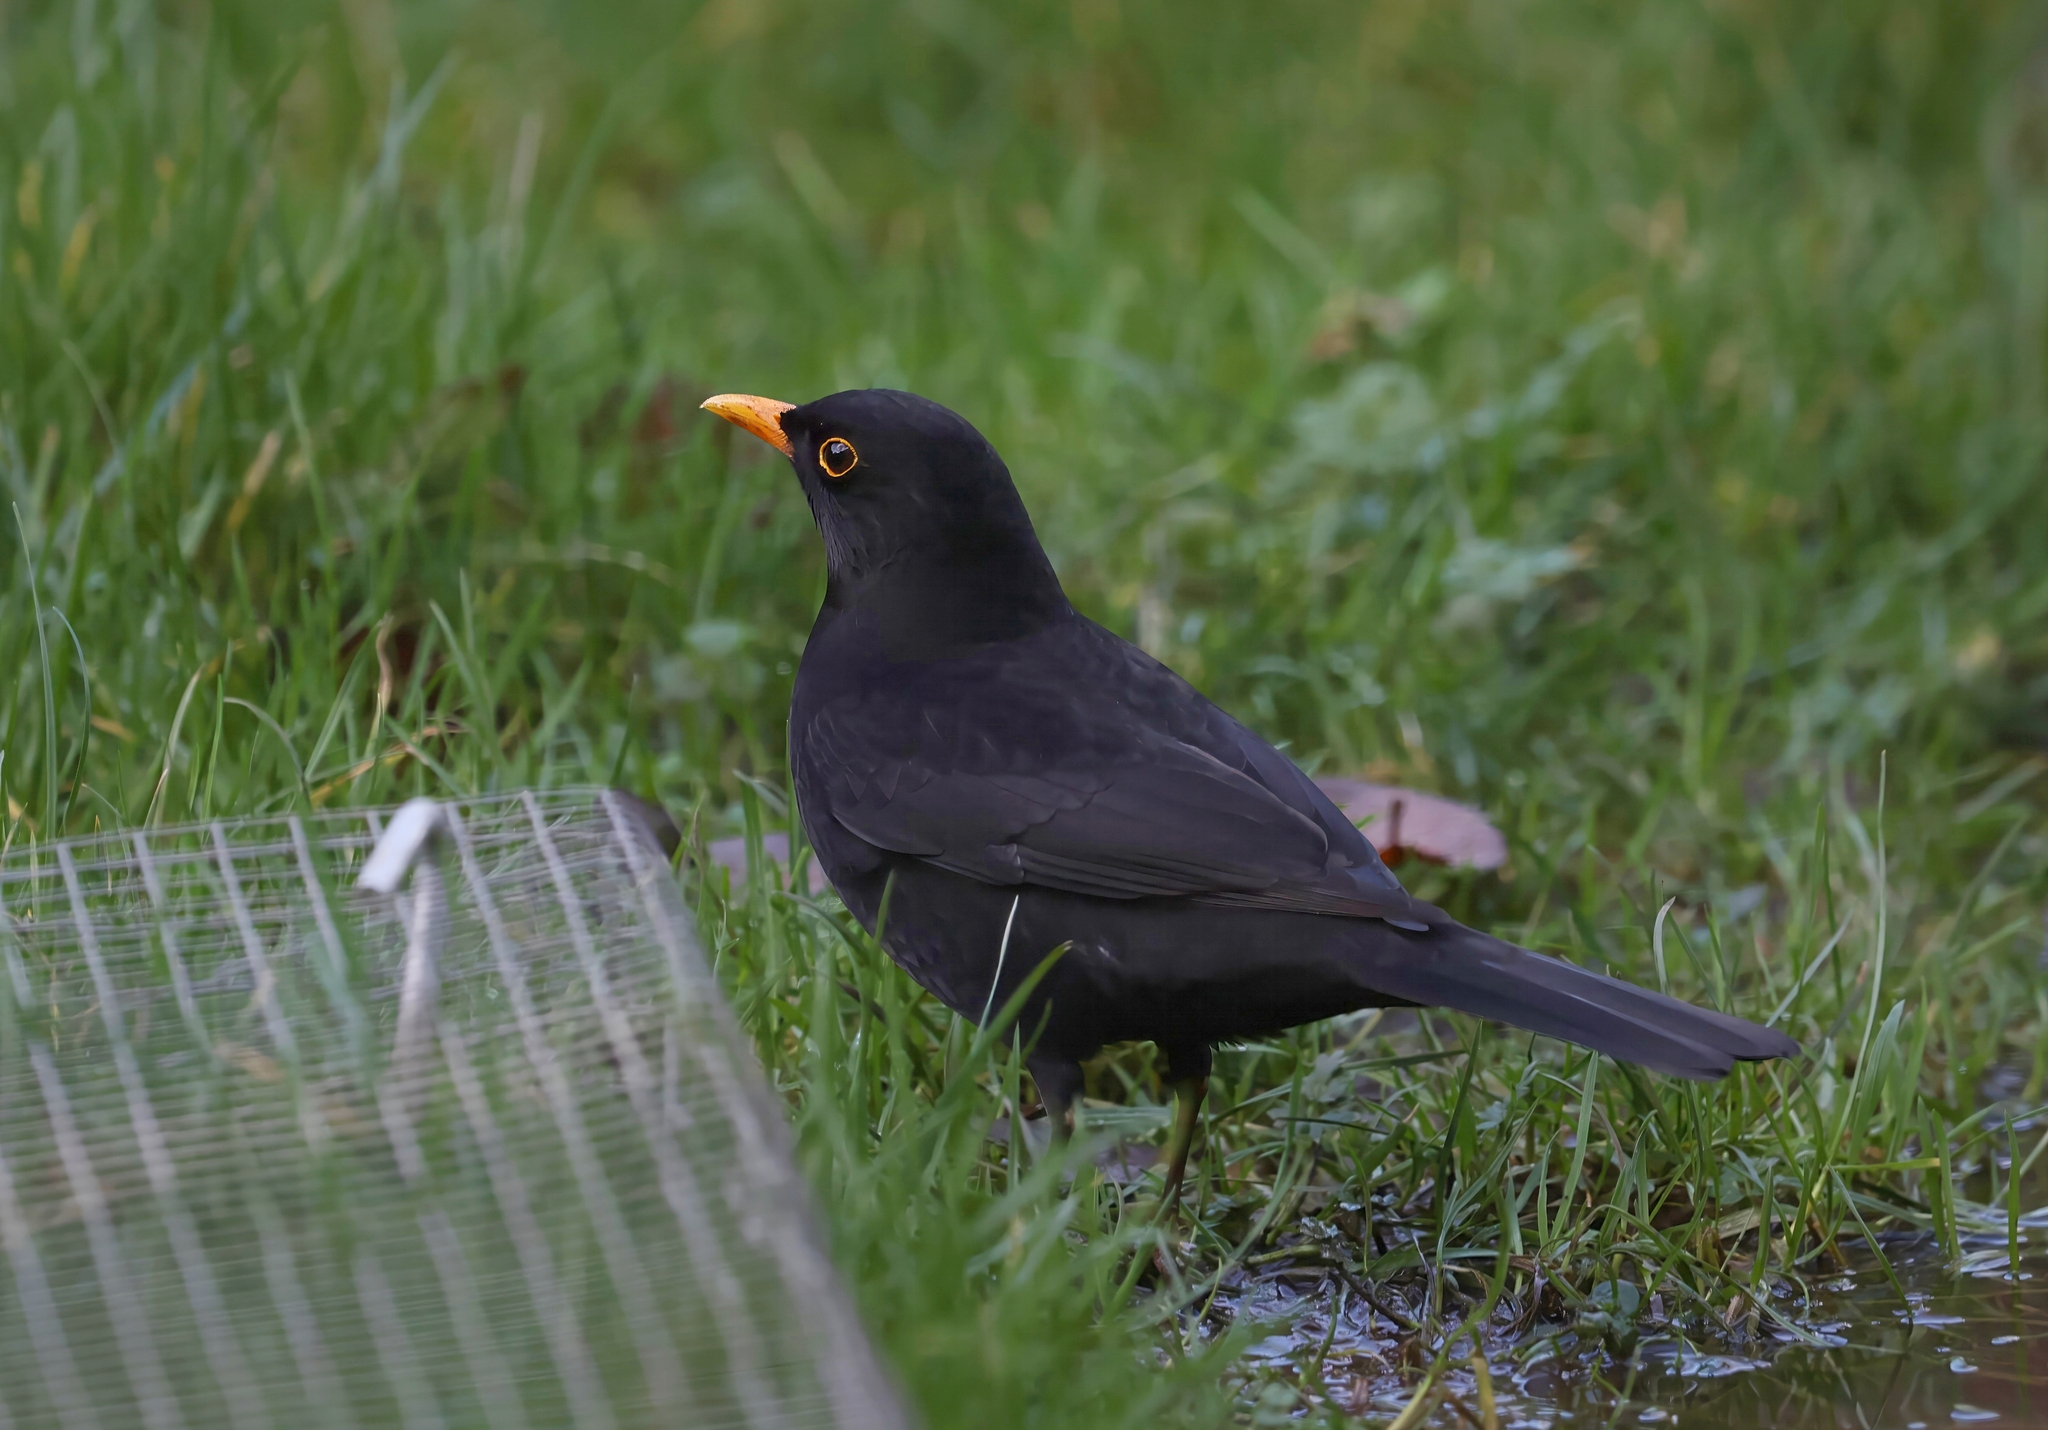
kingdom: Animalia
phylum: Chordata
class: Aves
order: Passeriformes
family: Turdidae
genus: Turdus
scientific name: Turdus merula
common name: Common blackbird
